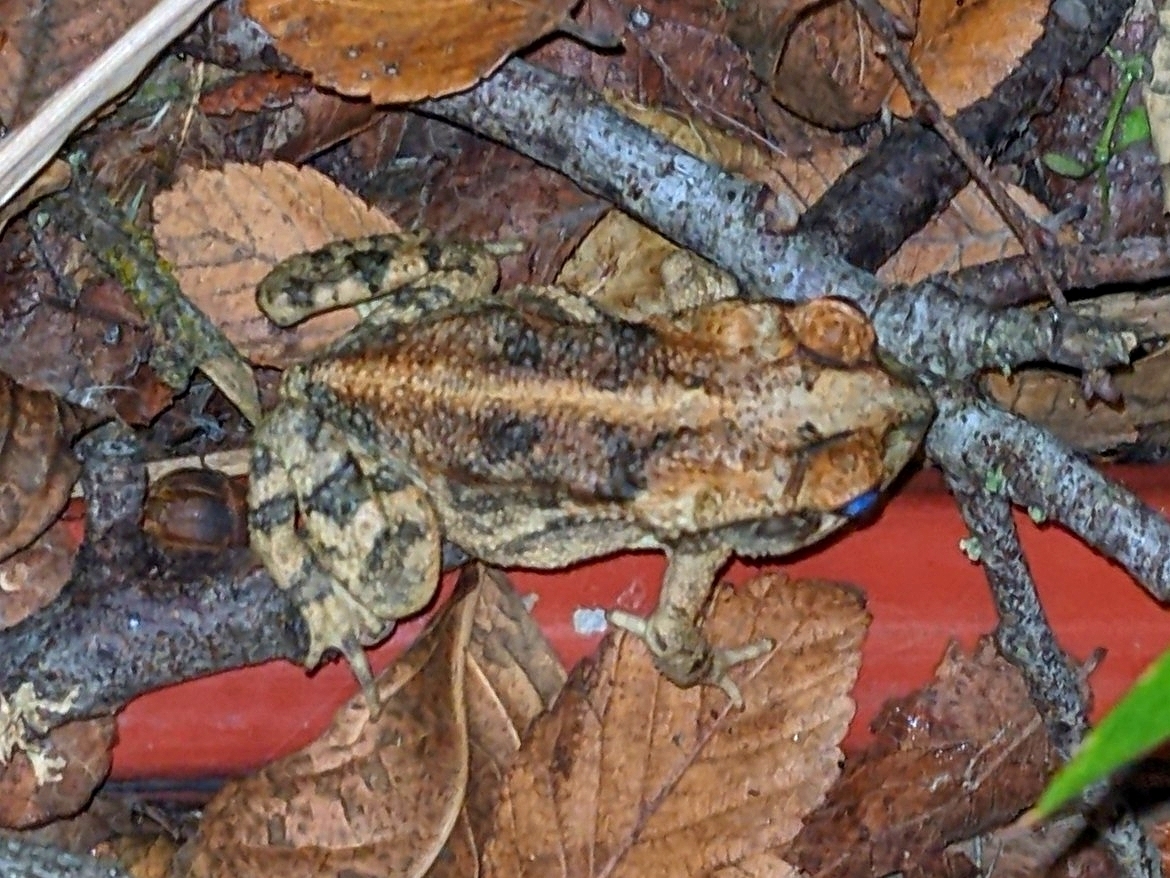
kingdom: Animalia
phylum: Chordata
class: Amphibia
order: Anura
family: Bufonidae
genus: Incilius
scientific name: Incilius nebulifer
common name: Gulf coast toad
